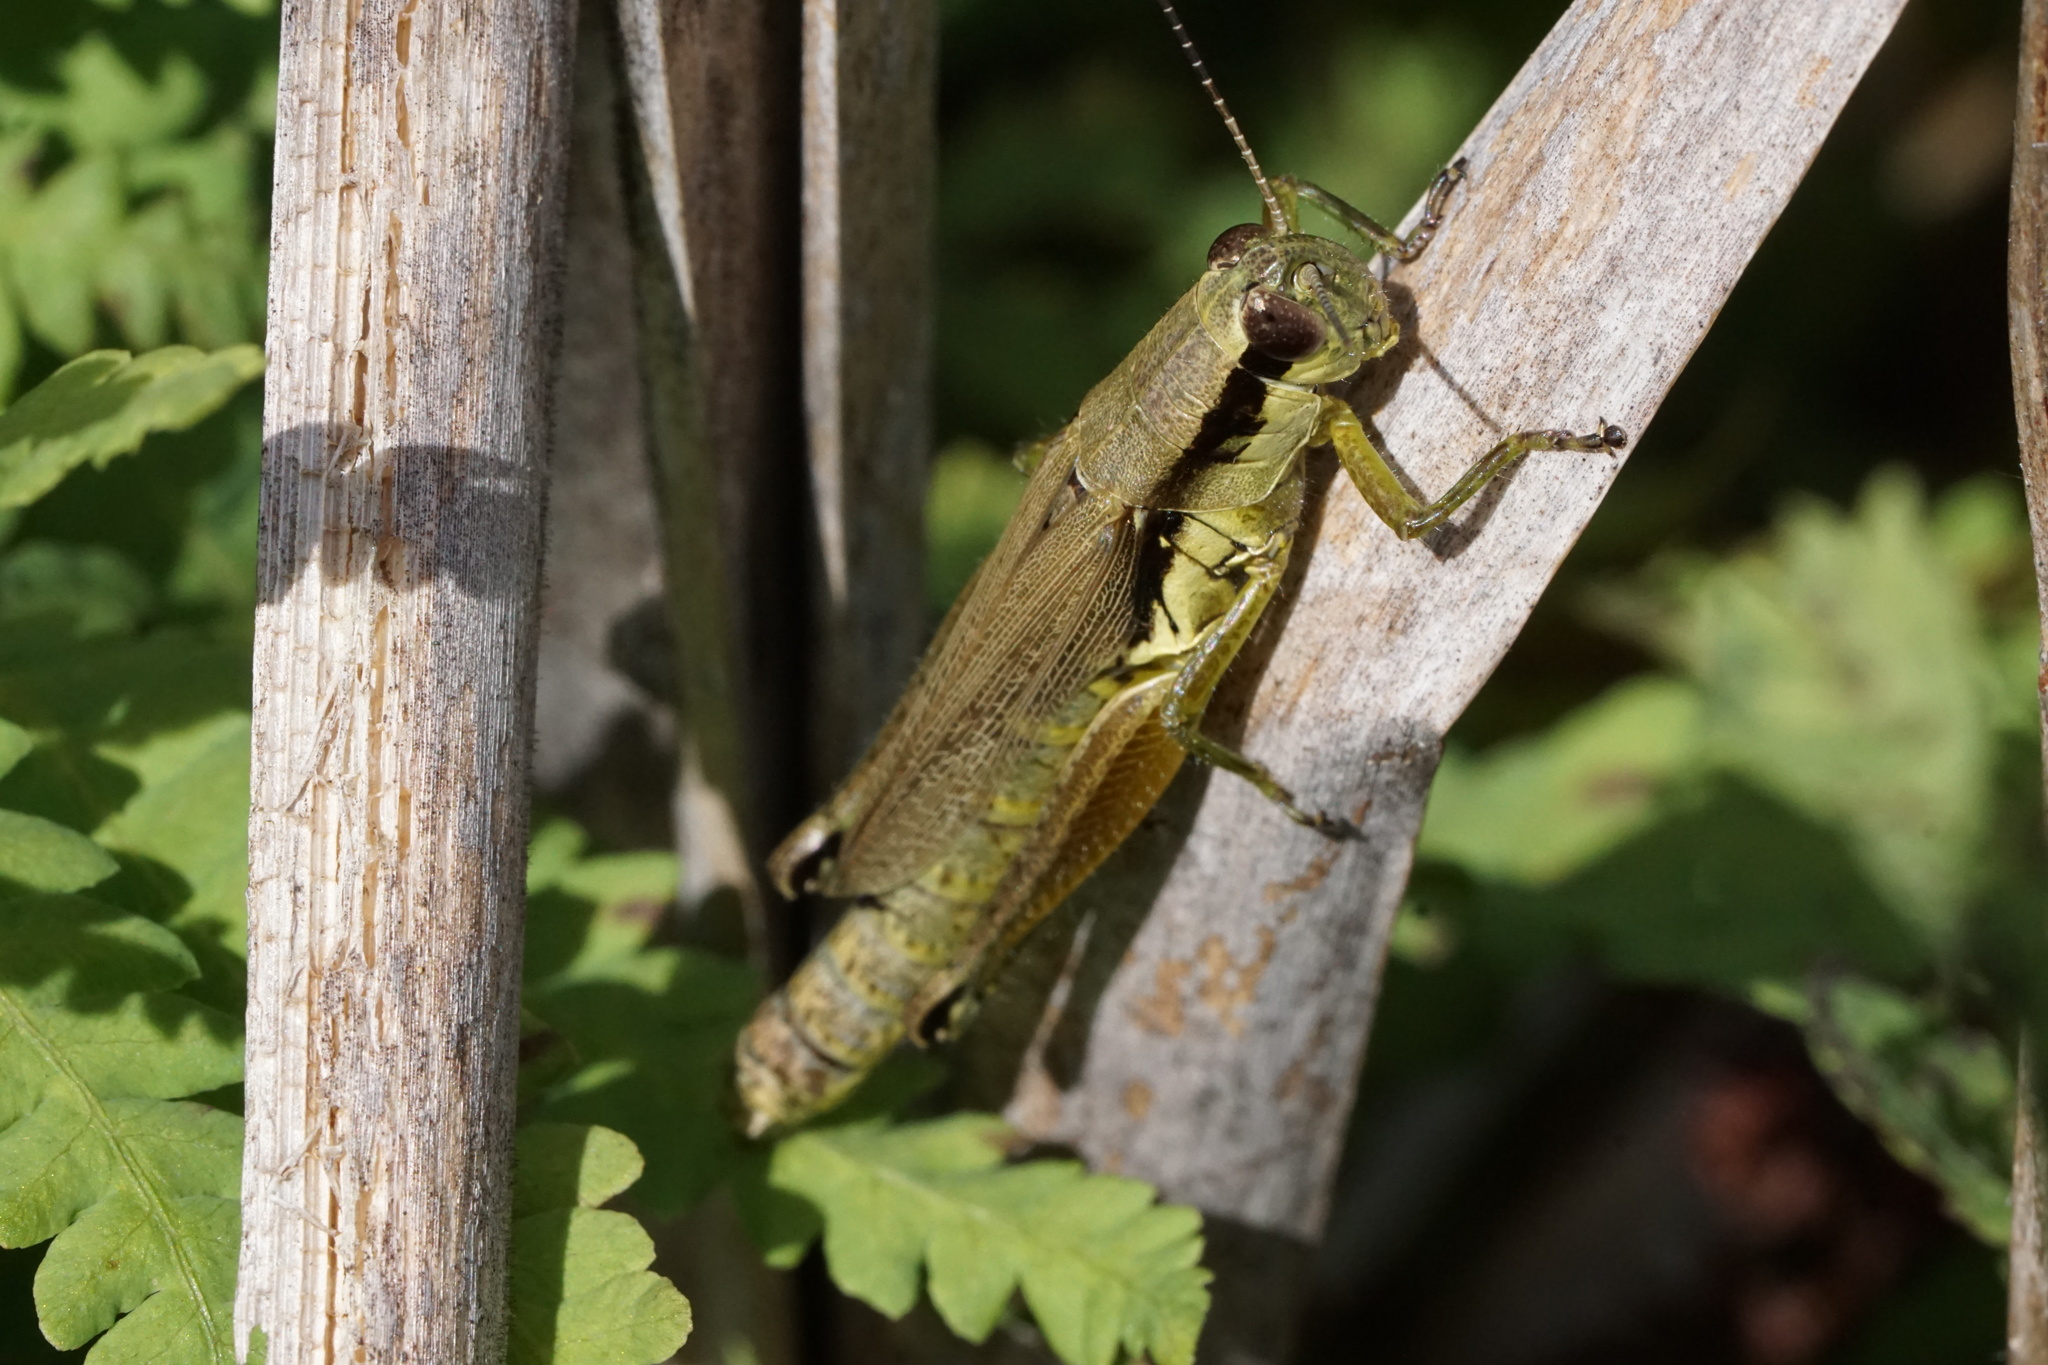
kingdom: Animalia
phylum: Arthropoda
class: Insecta
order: Orthoptera
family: Acrididae
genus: Paroxya
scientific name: Paroxya clavuligera
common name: Olive-green swamp grasshopper
